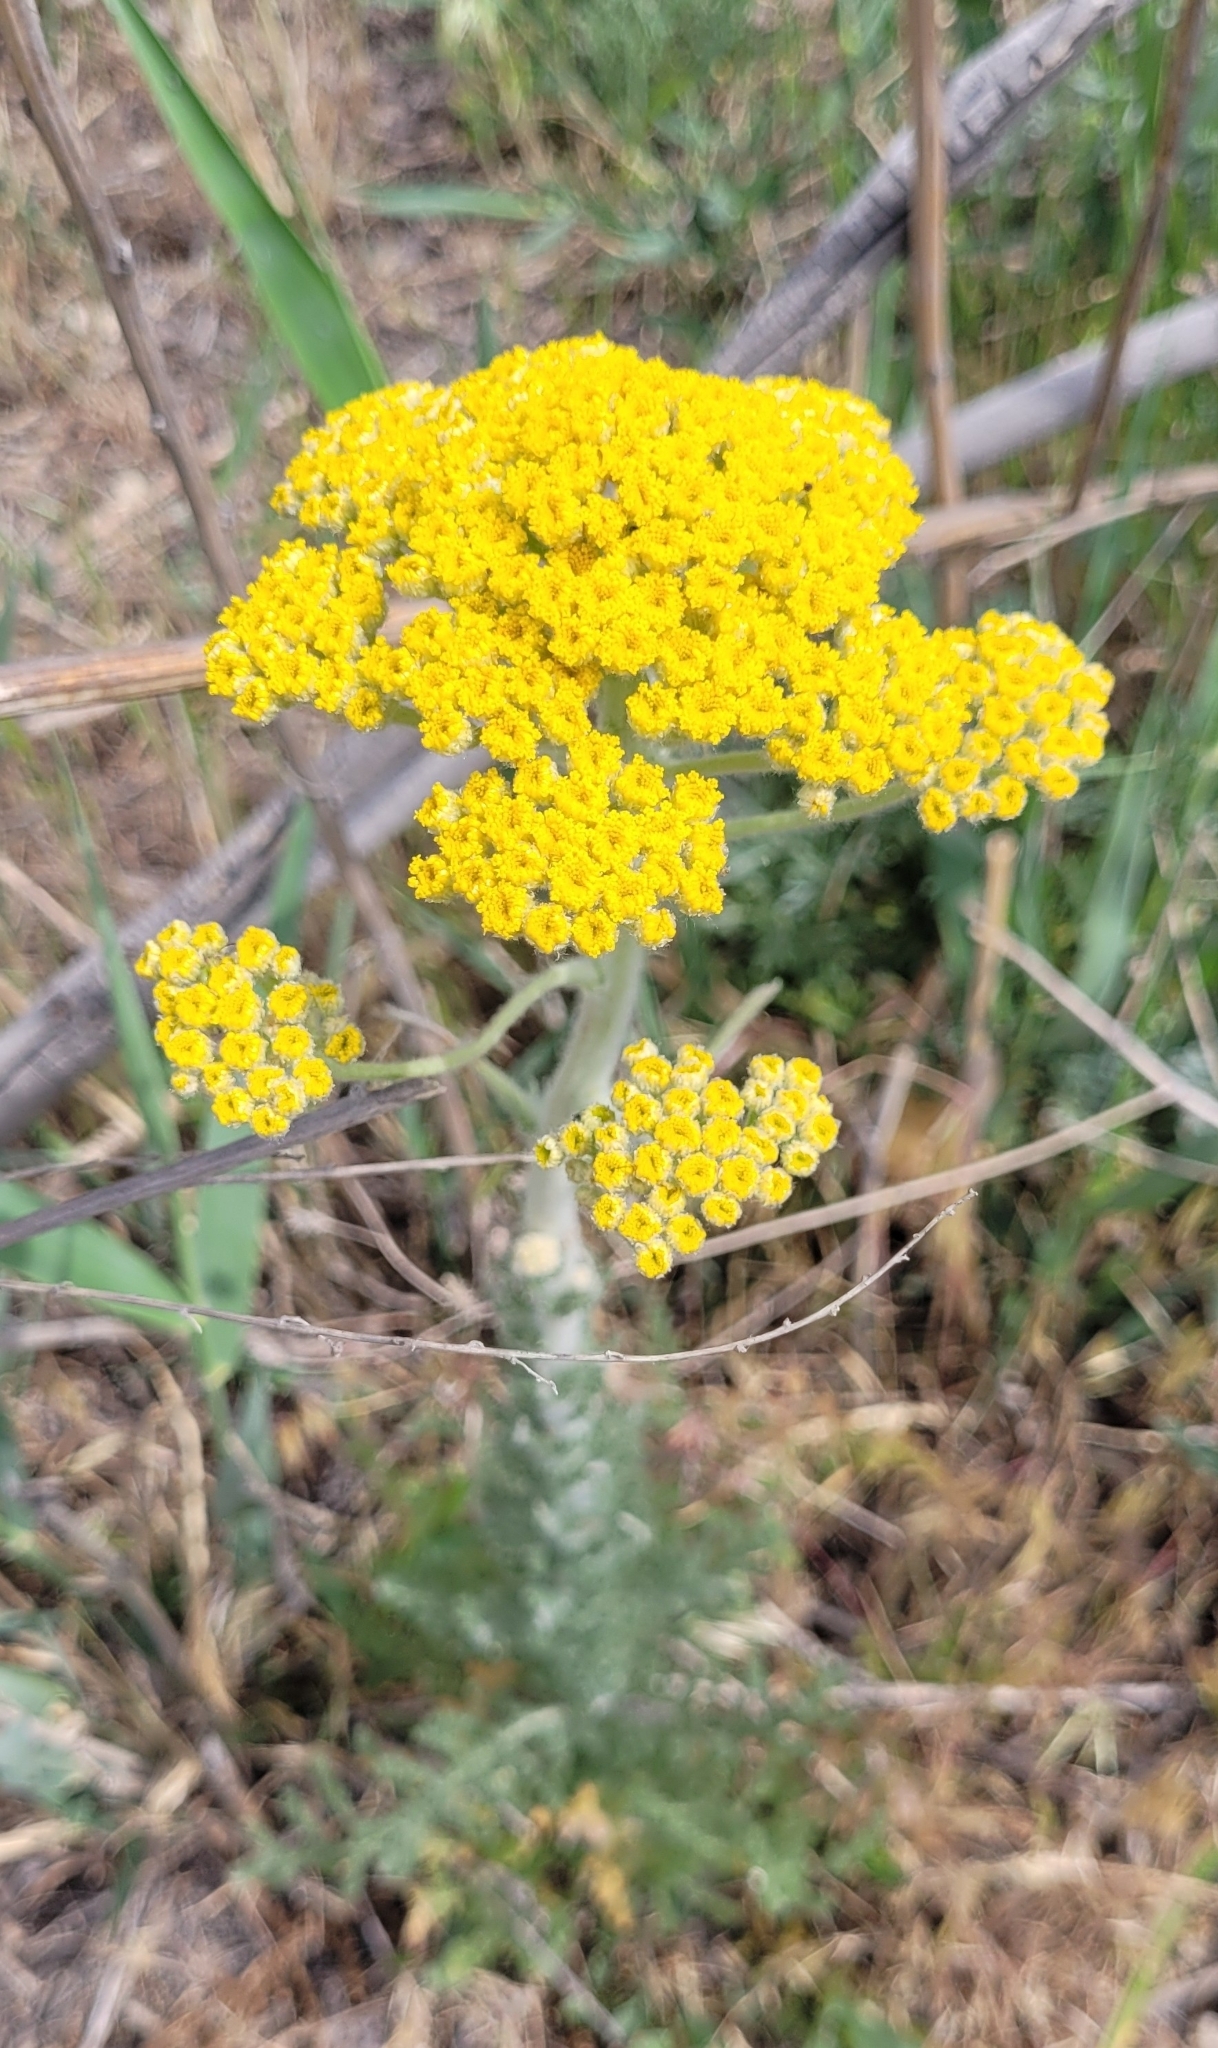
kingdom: Plantae
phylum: Tracheophyta
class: Magnoliopsida
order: Asterales
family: Asteraceae
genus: Pseudohandelia
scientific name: Pseudohandelia umbellifera
